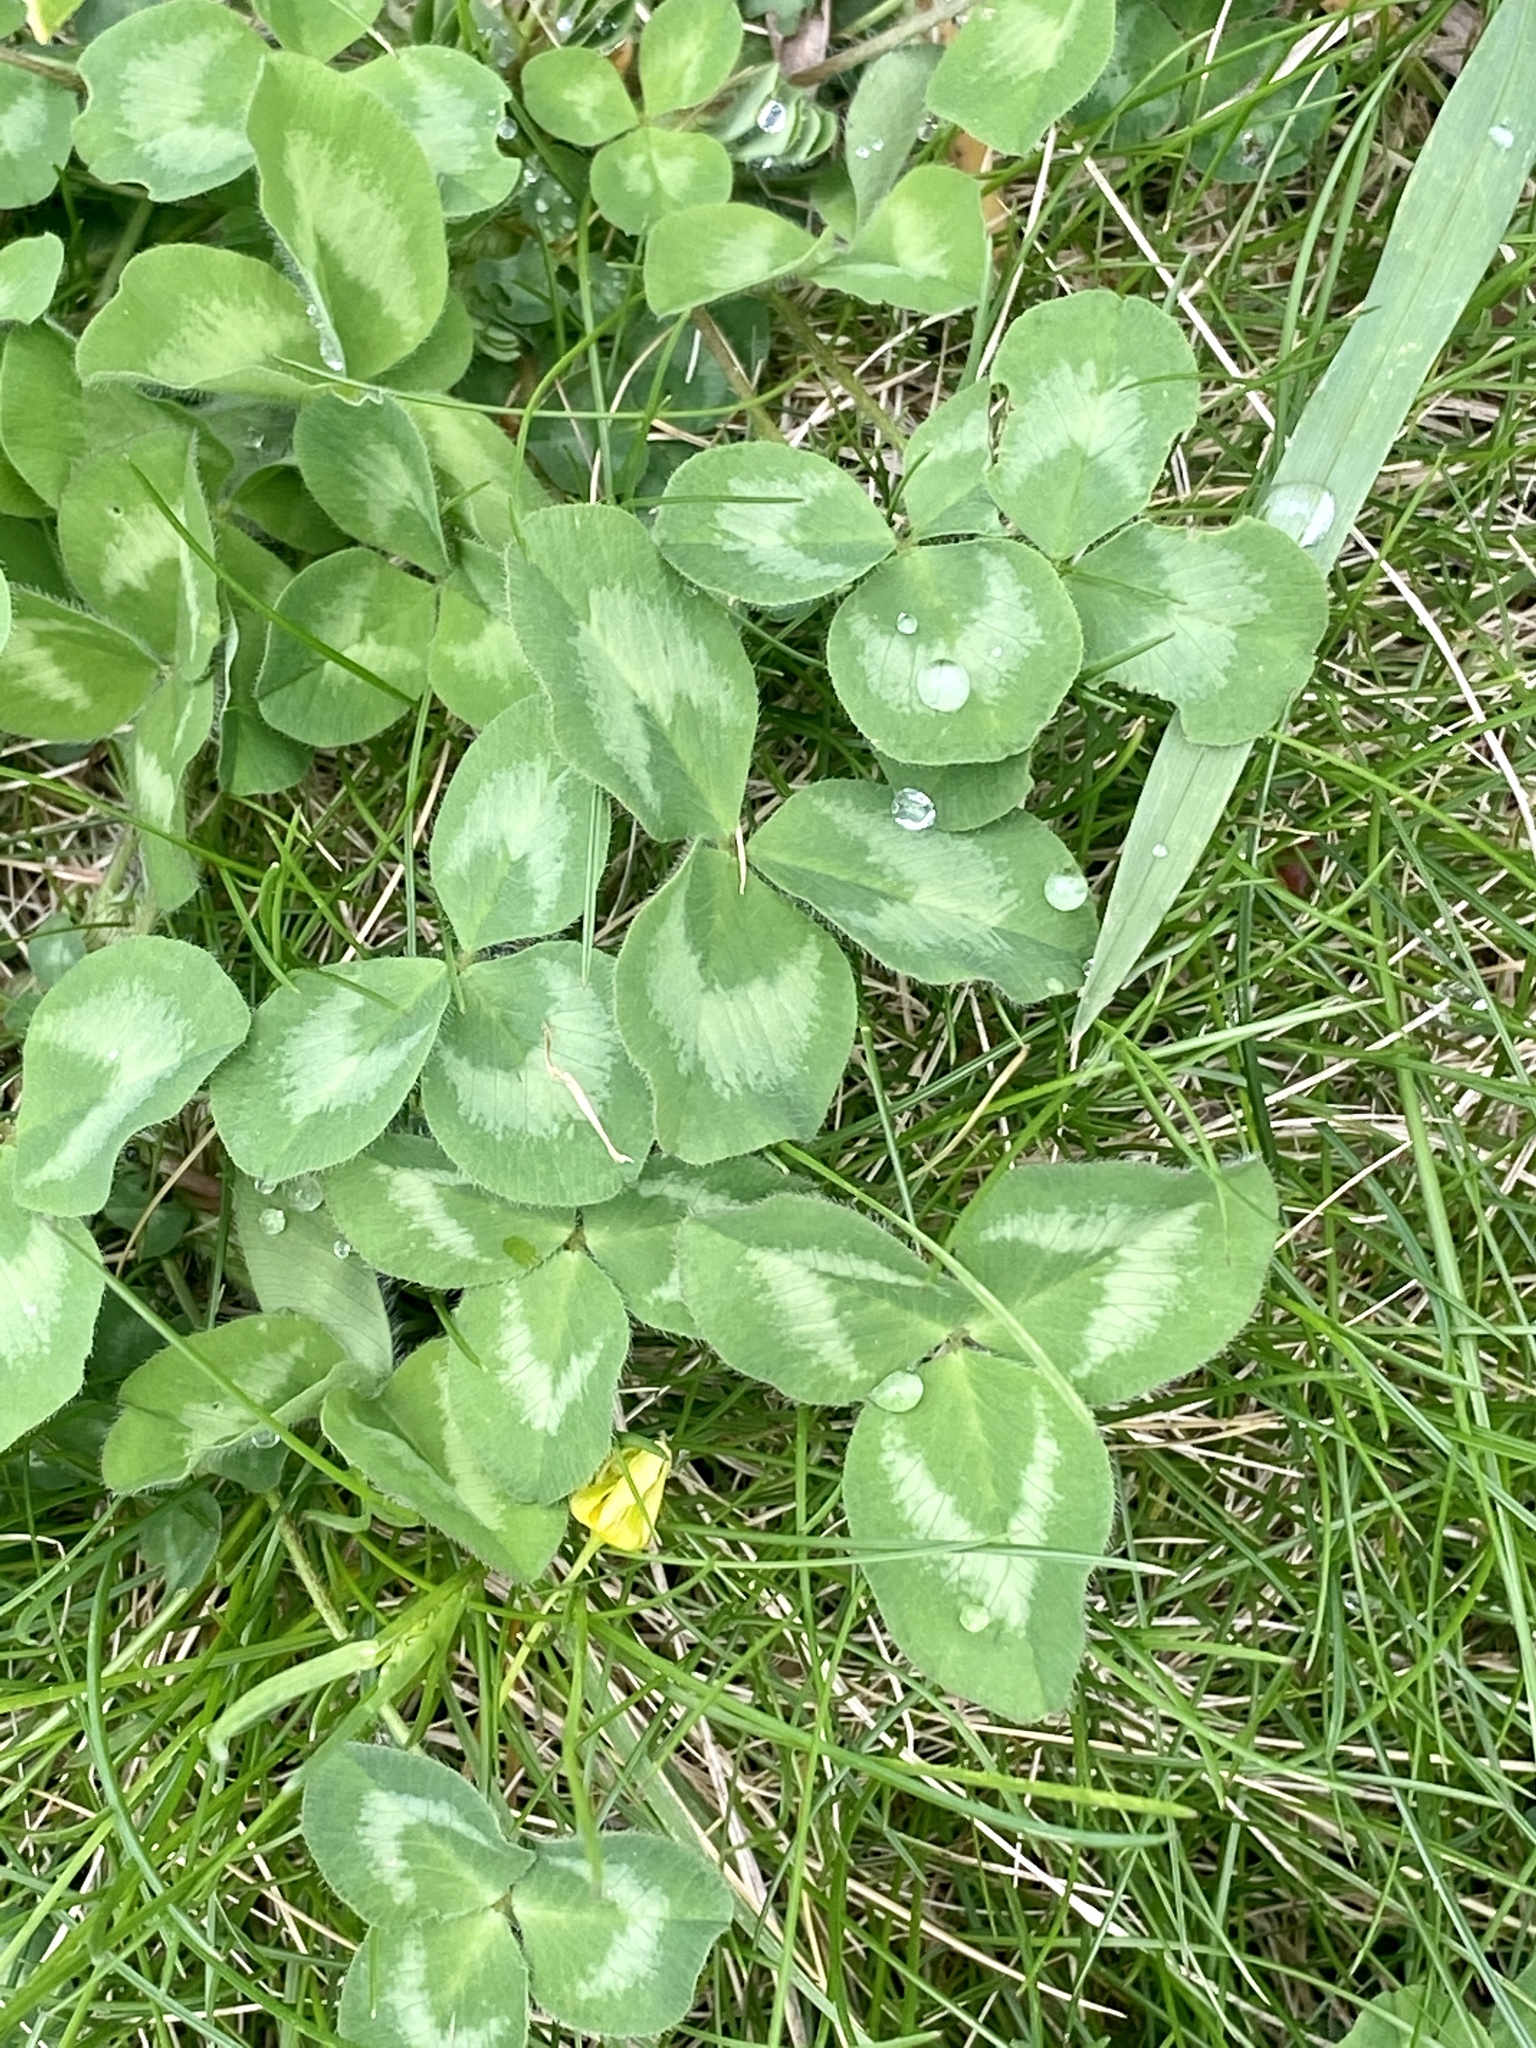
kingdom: Plantae
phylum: Tracheophyta
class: Magnoliopsida
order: Fabales
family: Fabaceae
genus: Trifolium
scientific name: Trifolium pratense
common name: Red clover
